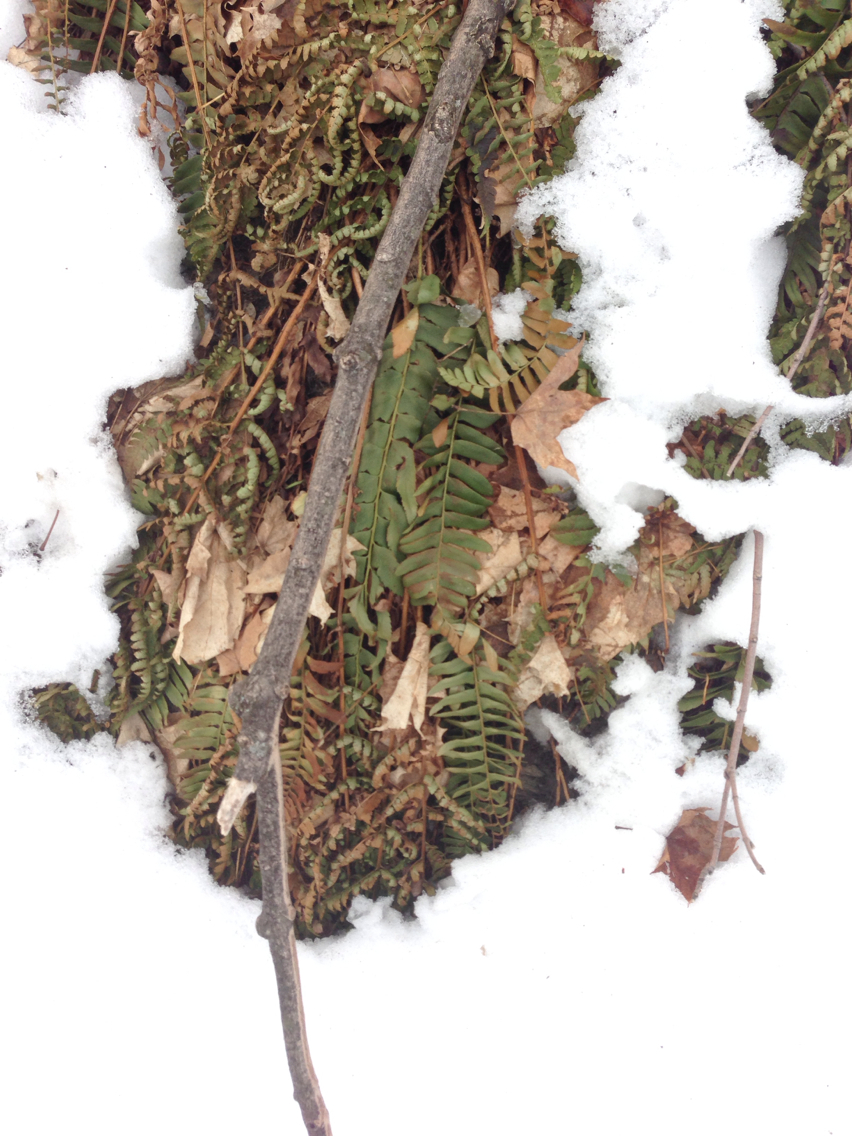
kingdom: Plantae
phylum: Tracheophyta
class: Polypodiopsida
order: Polypodiales
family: Dryopteridaceae
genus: Polystichum
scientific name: Polystichum acrostichoides
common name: Christmas fern
